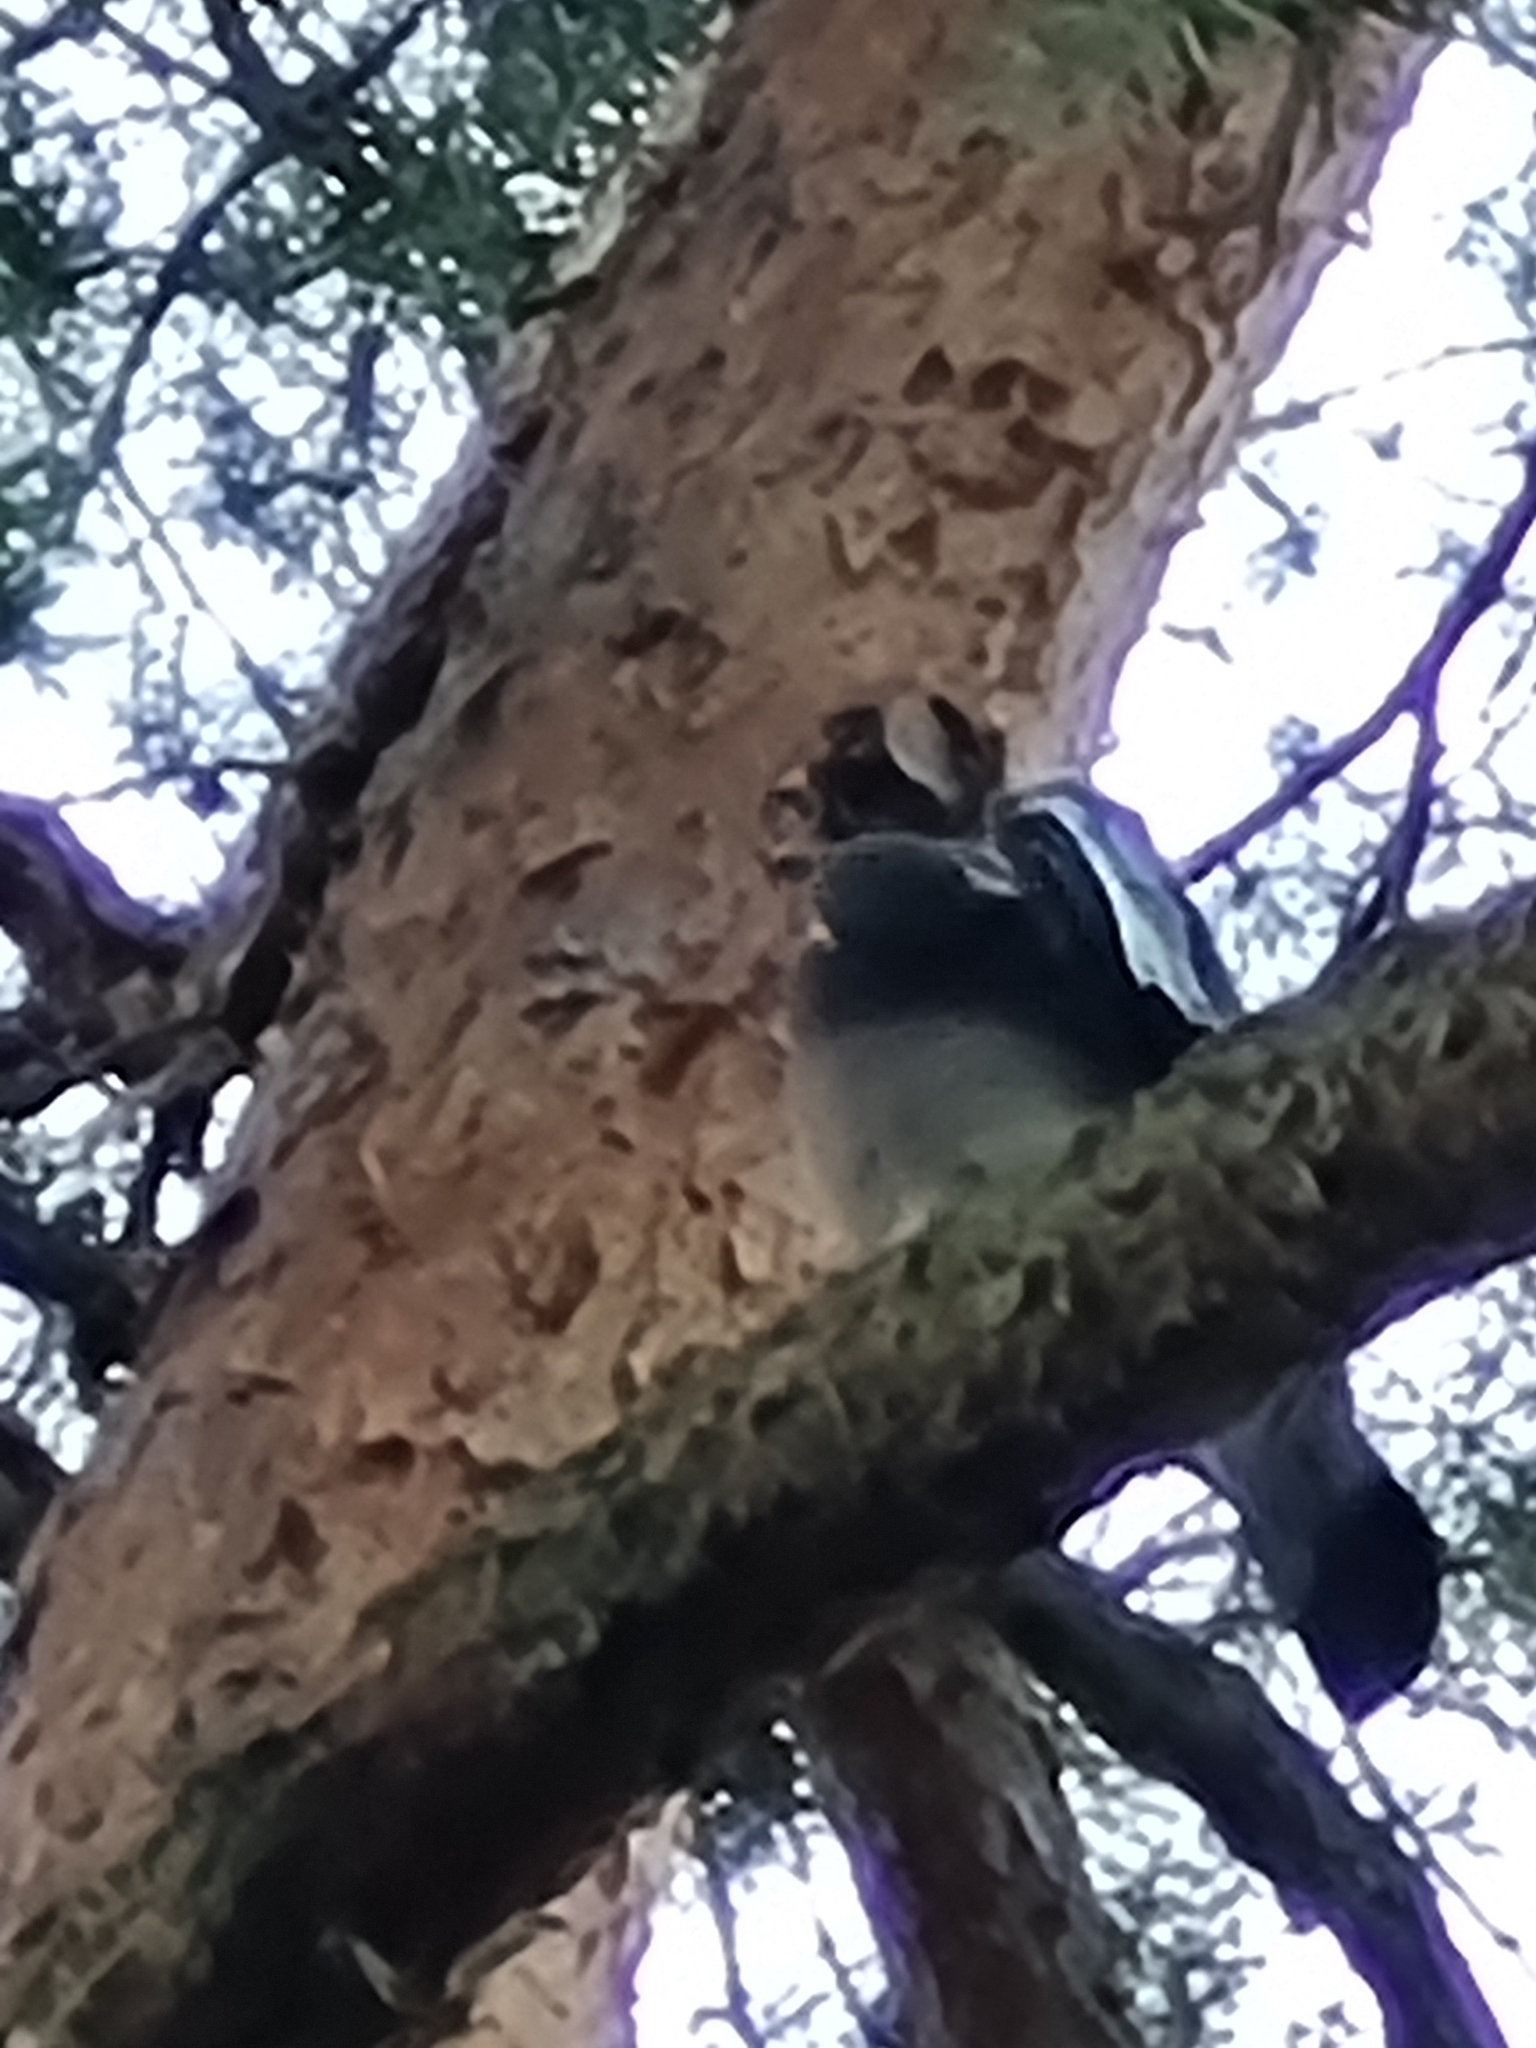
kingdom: Animalia
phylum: Chordata
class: Aves
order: Columbiformes
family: Columbidae
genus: Columba
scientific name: Columba palumbus
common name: Common wood pigeon
